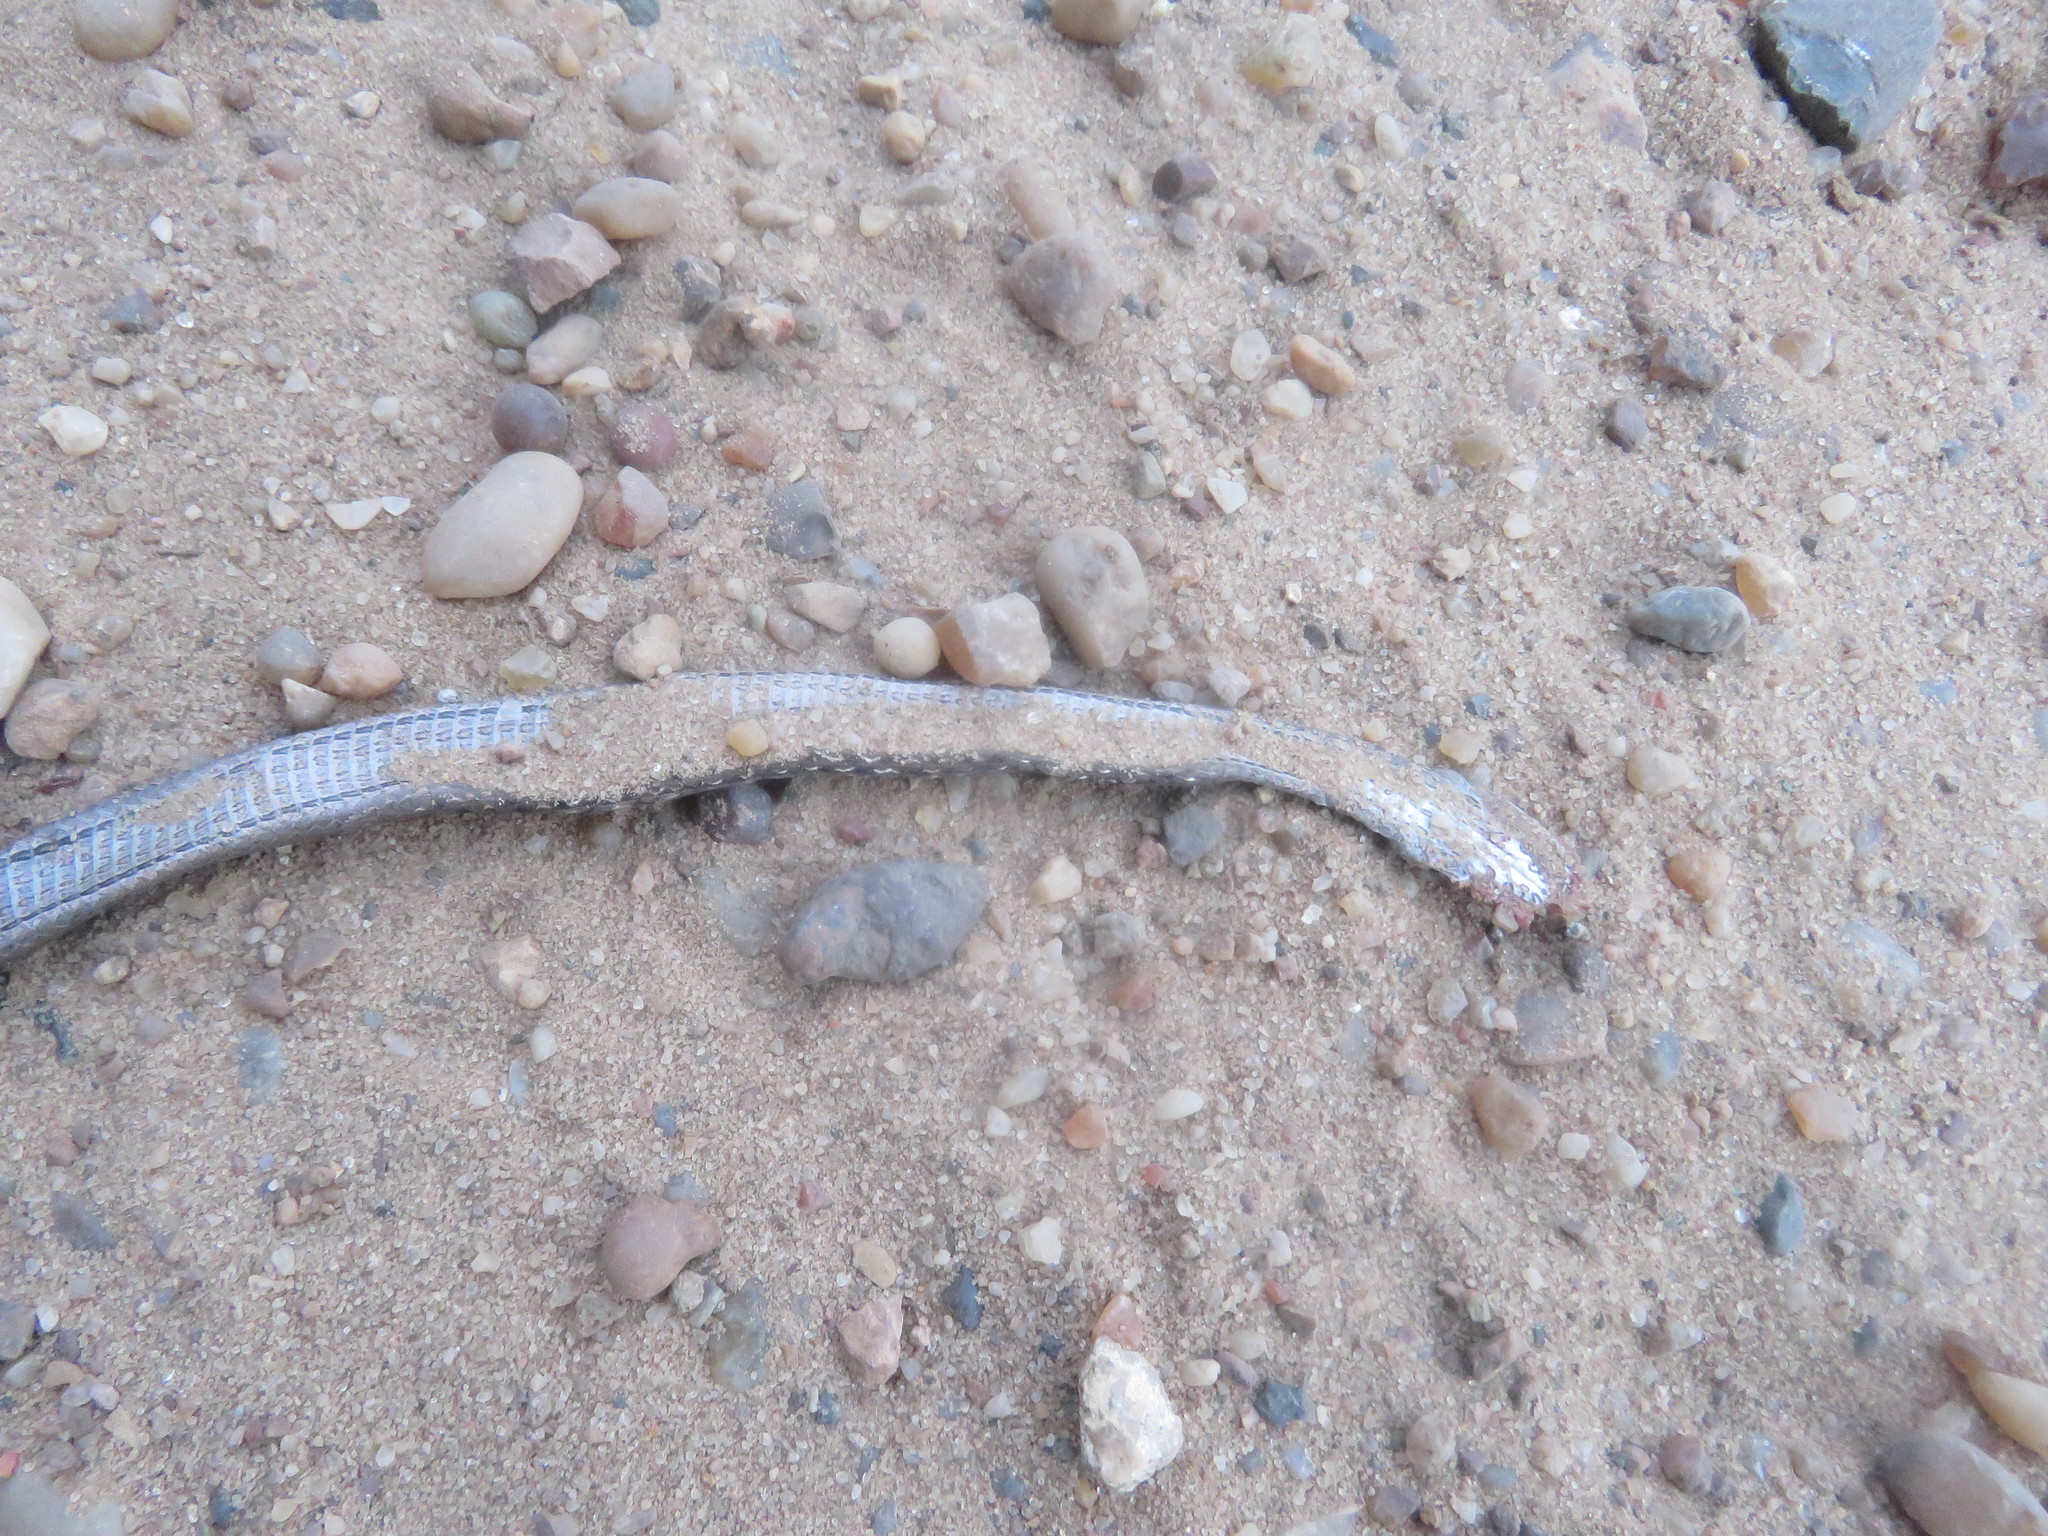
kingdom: Animalia
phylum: Chordata
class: Squamata
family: Colubridae
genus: Dryophylax
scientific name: Dryophylax
